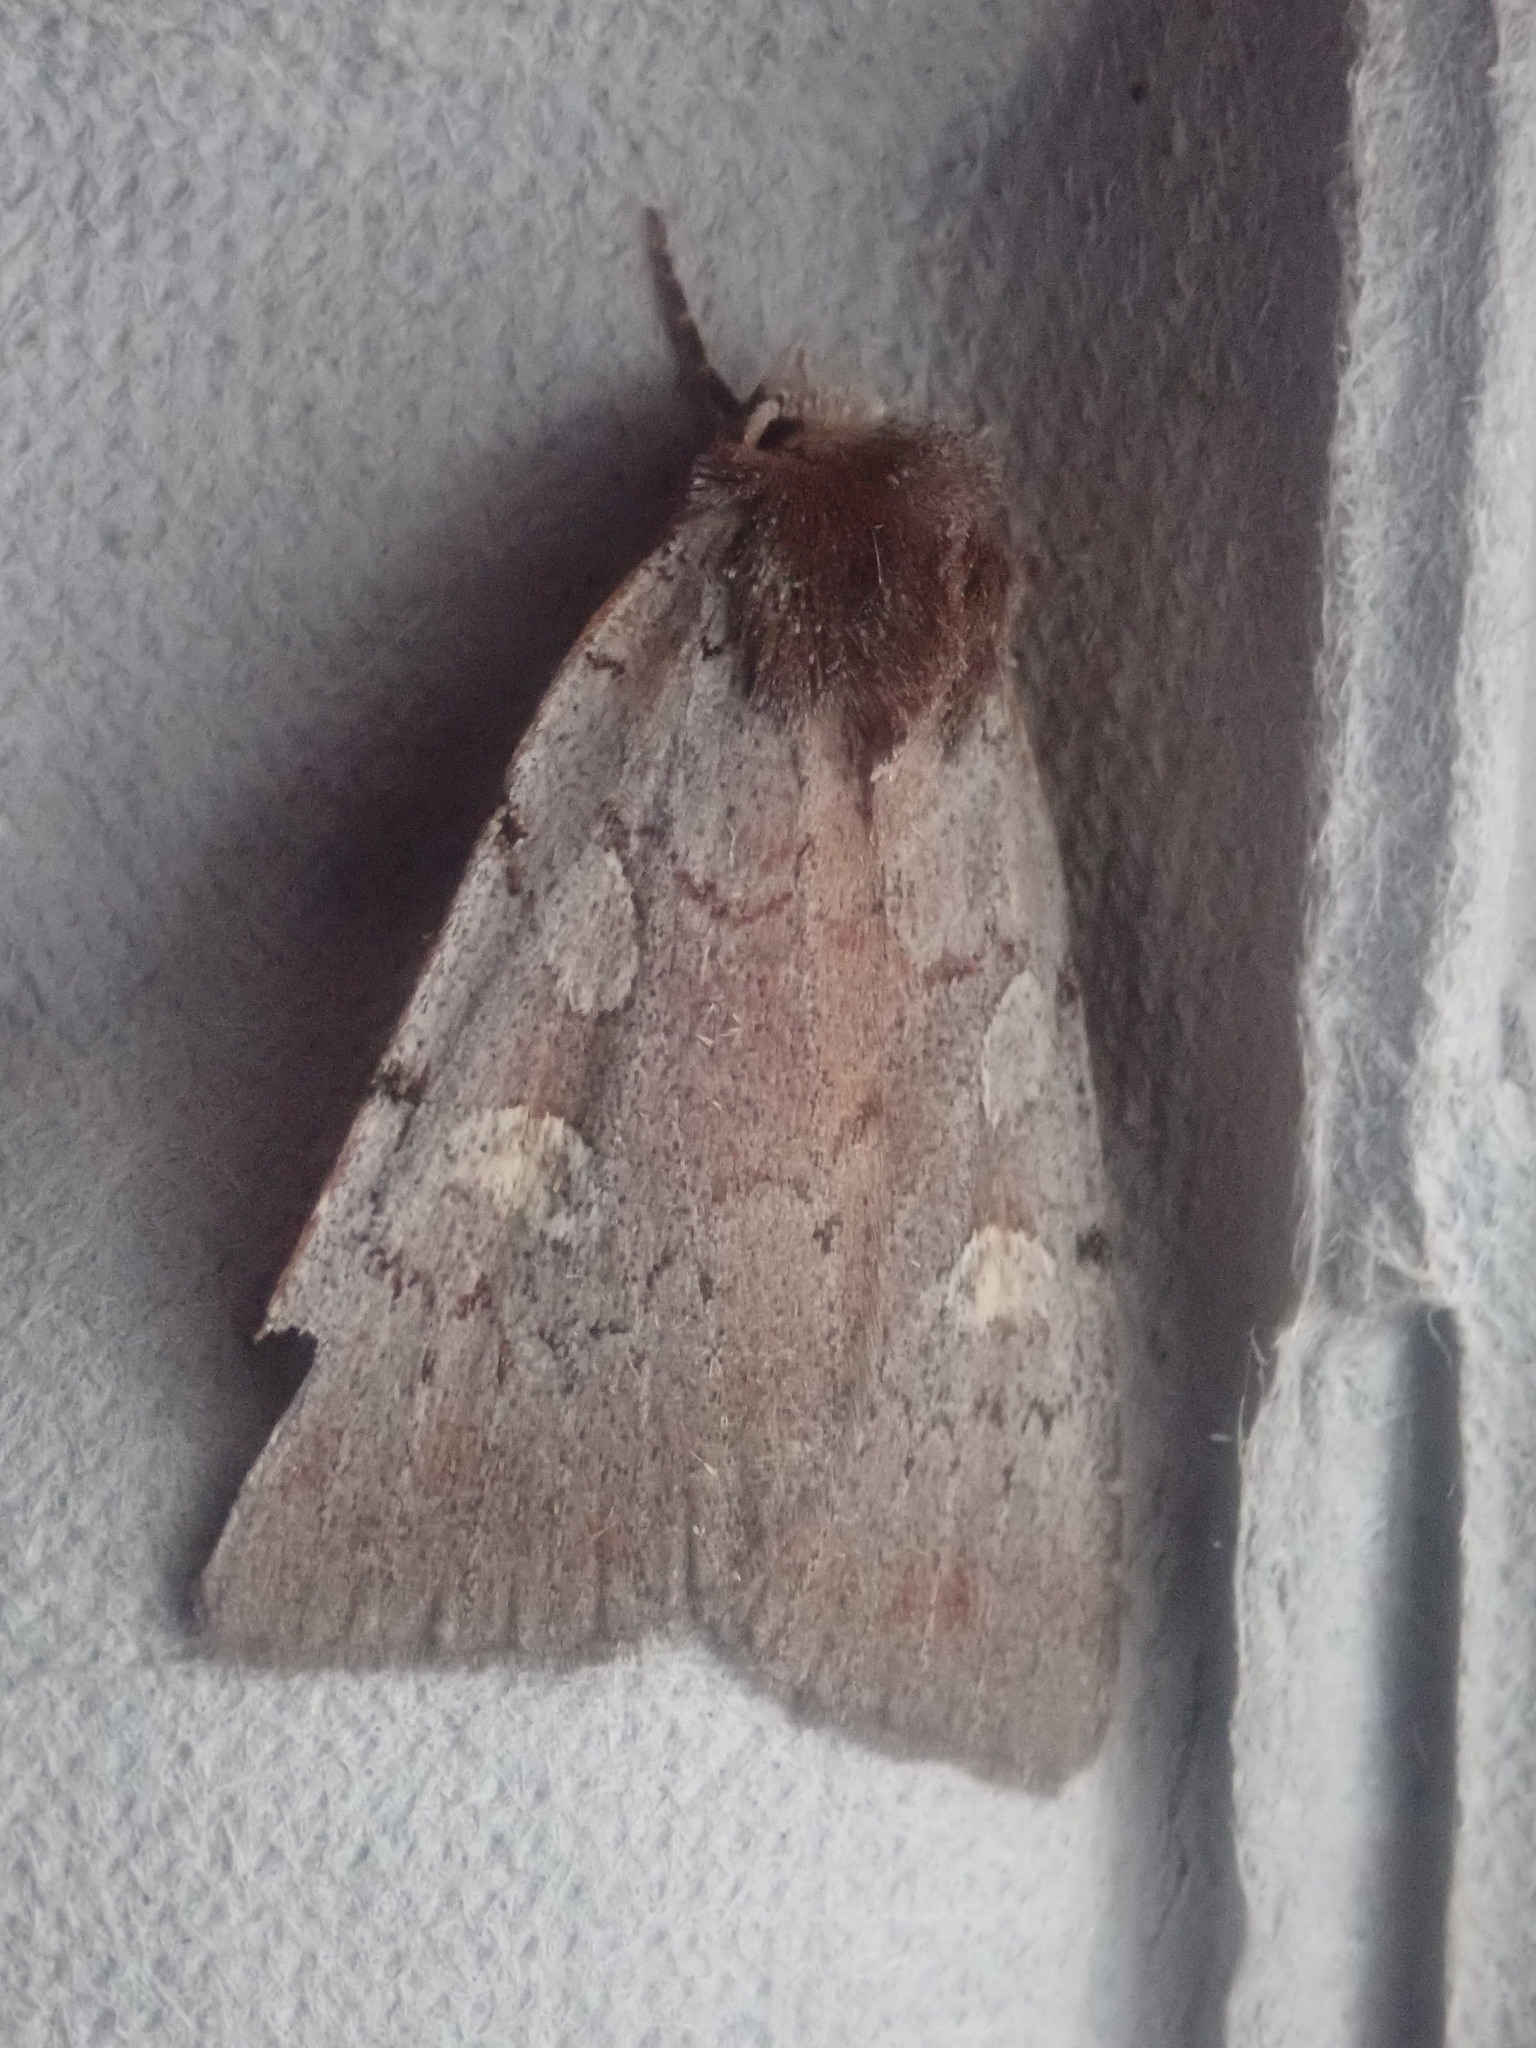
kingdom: Animalia
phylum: Arthropoda
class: Insecta
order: Lepidoptera
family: Noctuidae
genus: Xestia
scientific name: Xestia dilucida
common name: Dull reddish dart
